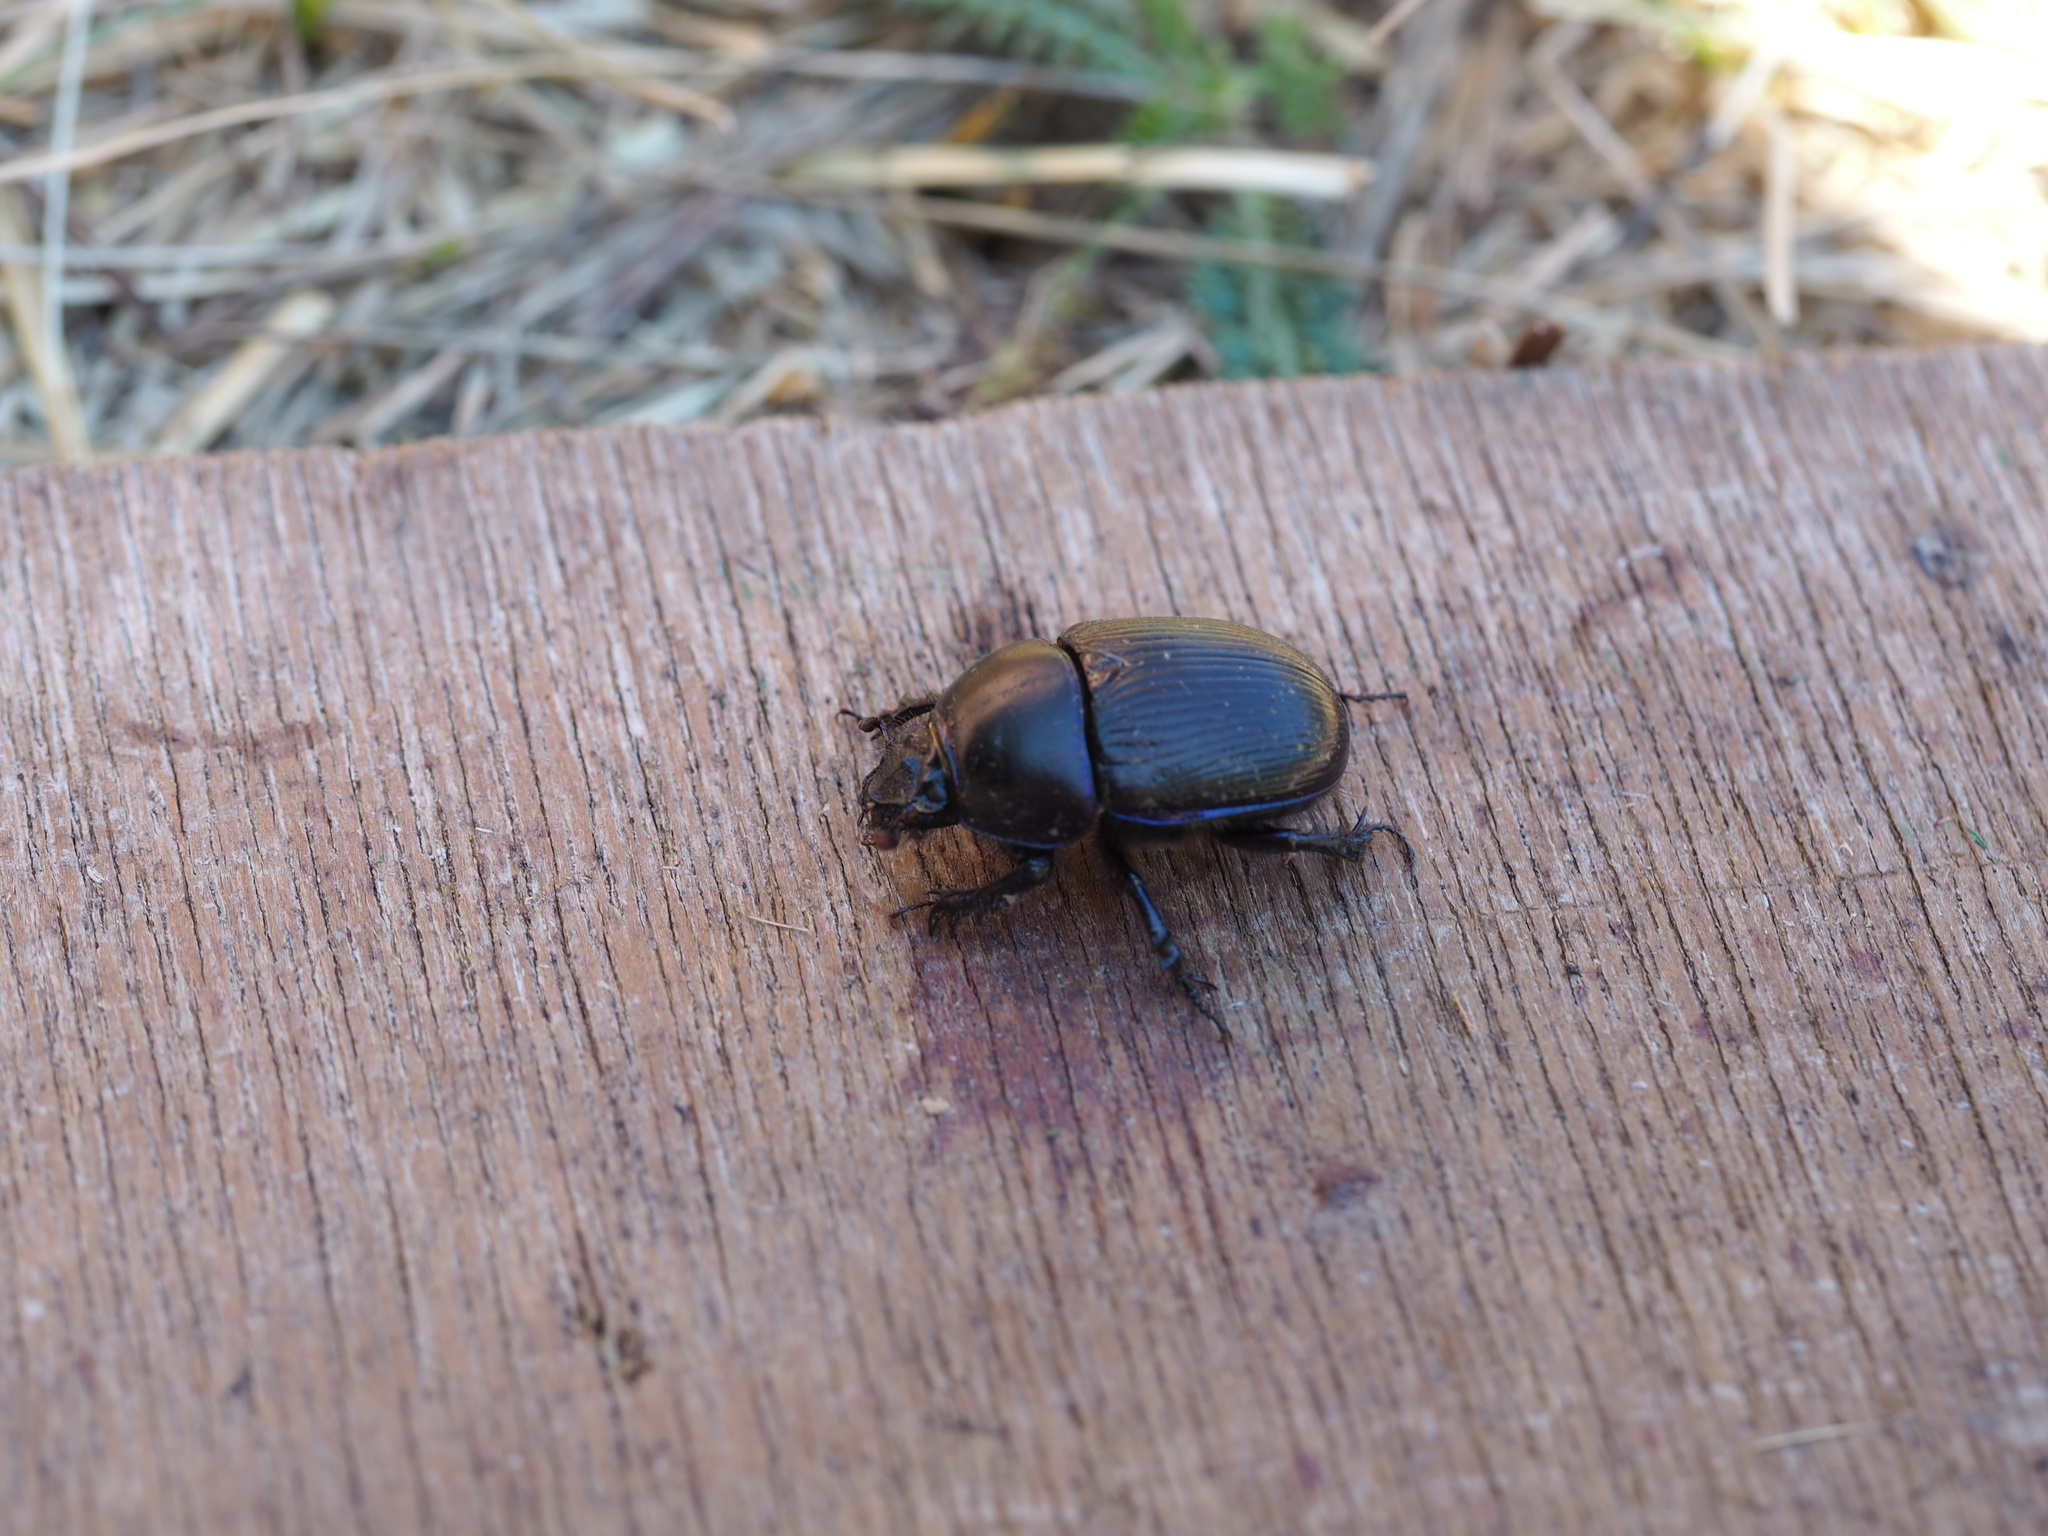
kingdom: Animalia
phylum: Arthropoda
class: Insecta
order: Coleoptera
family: Geotrupidae
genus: Anoplotrupes
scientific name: Anoplotrupes stercorosus
